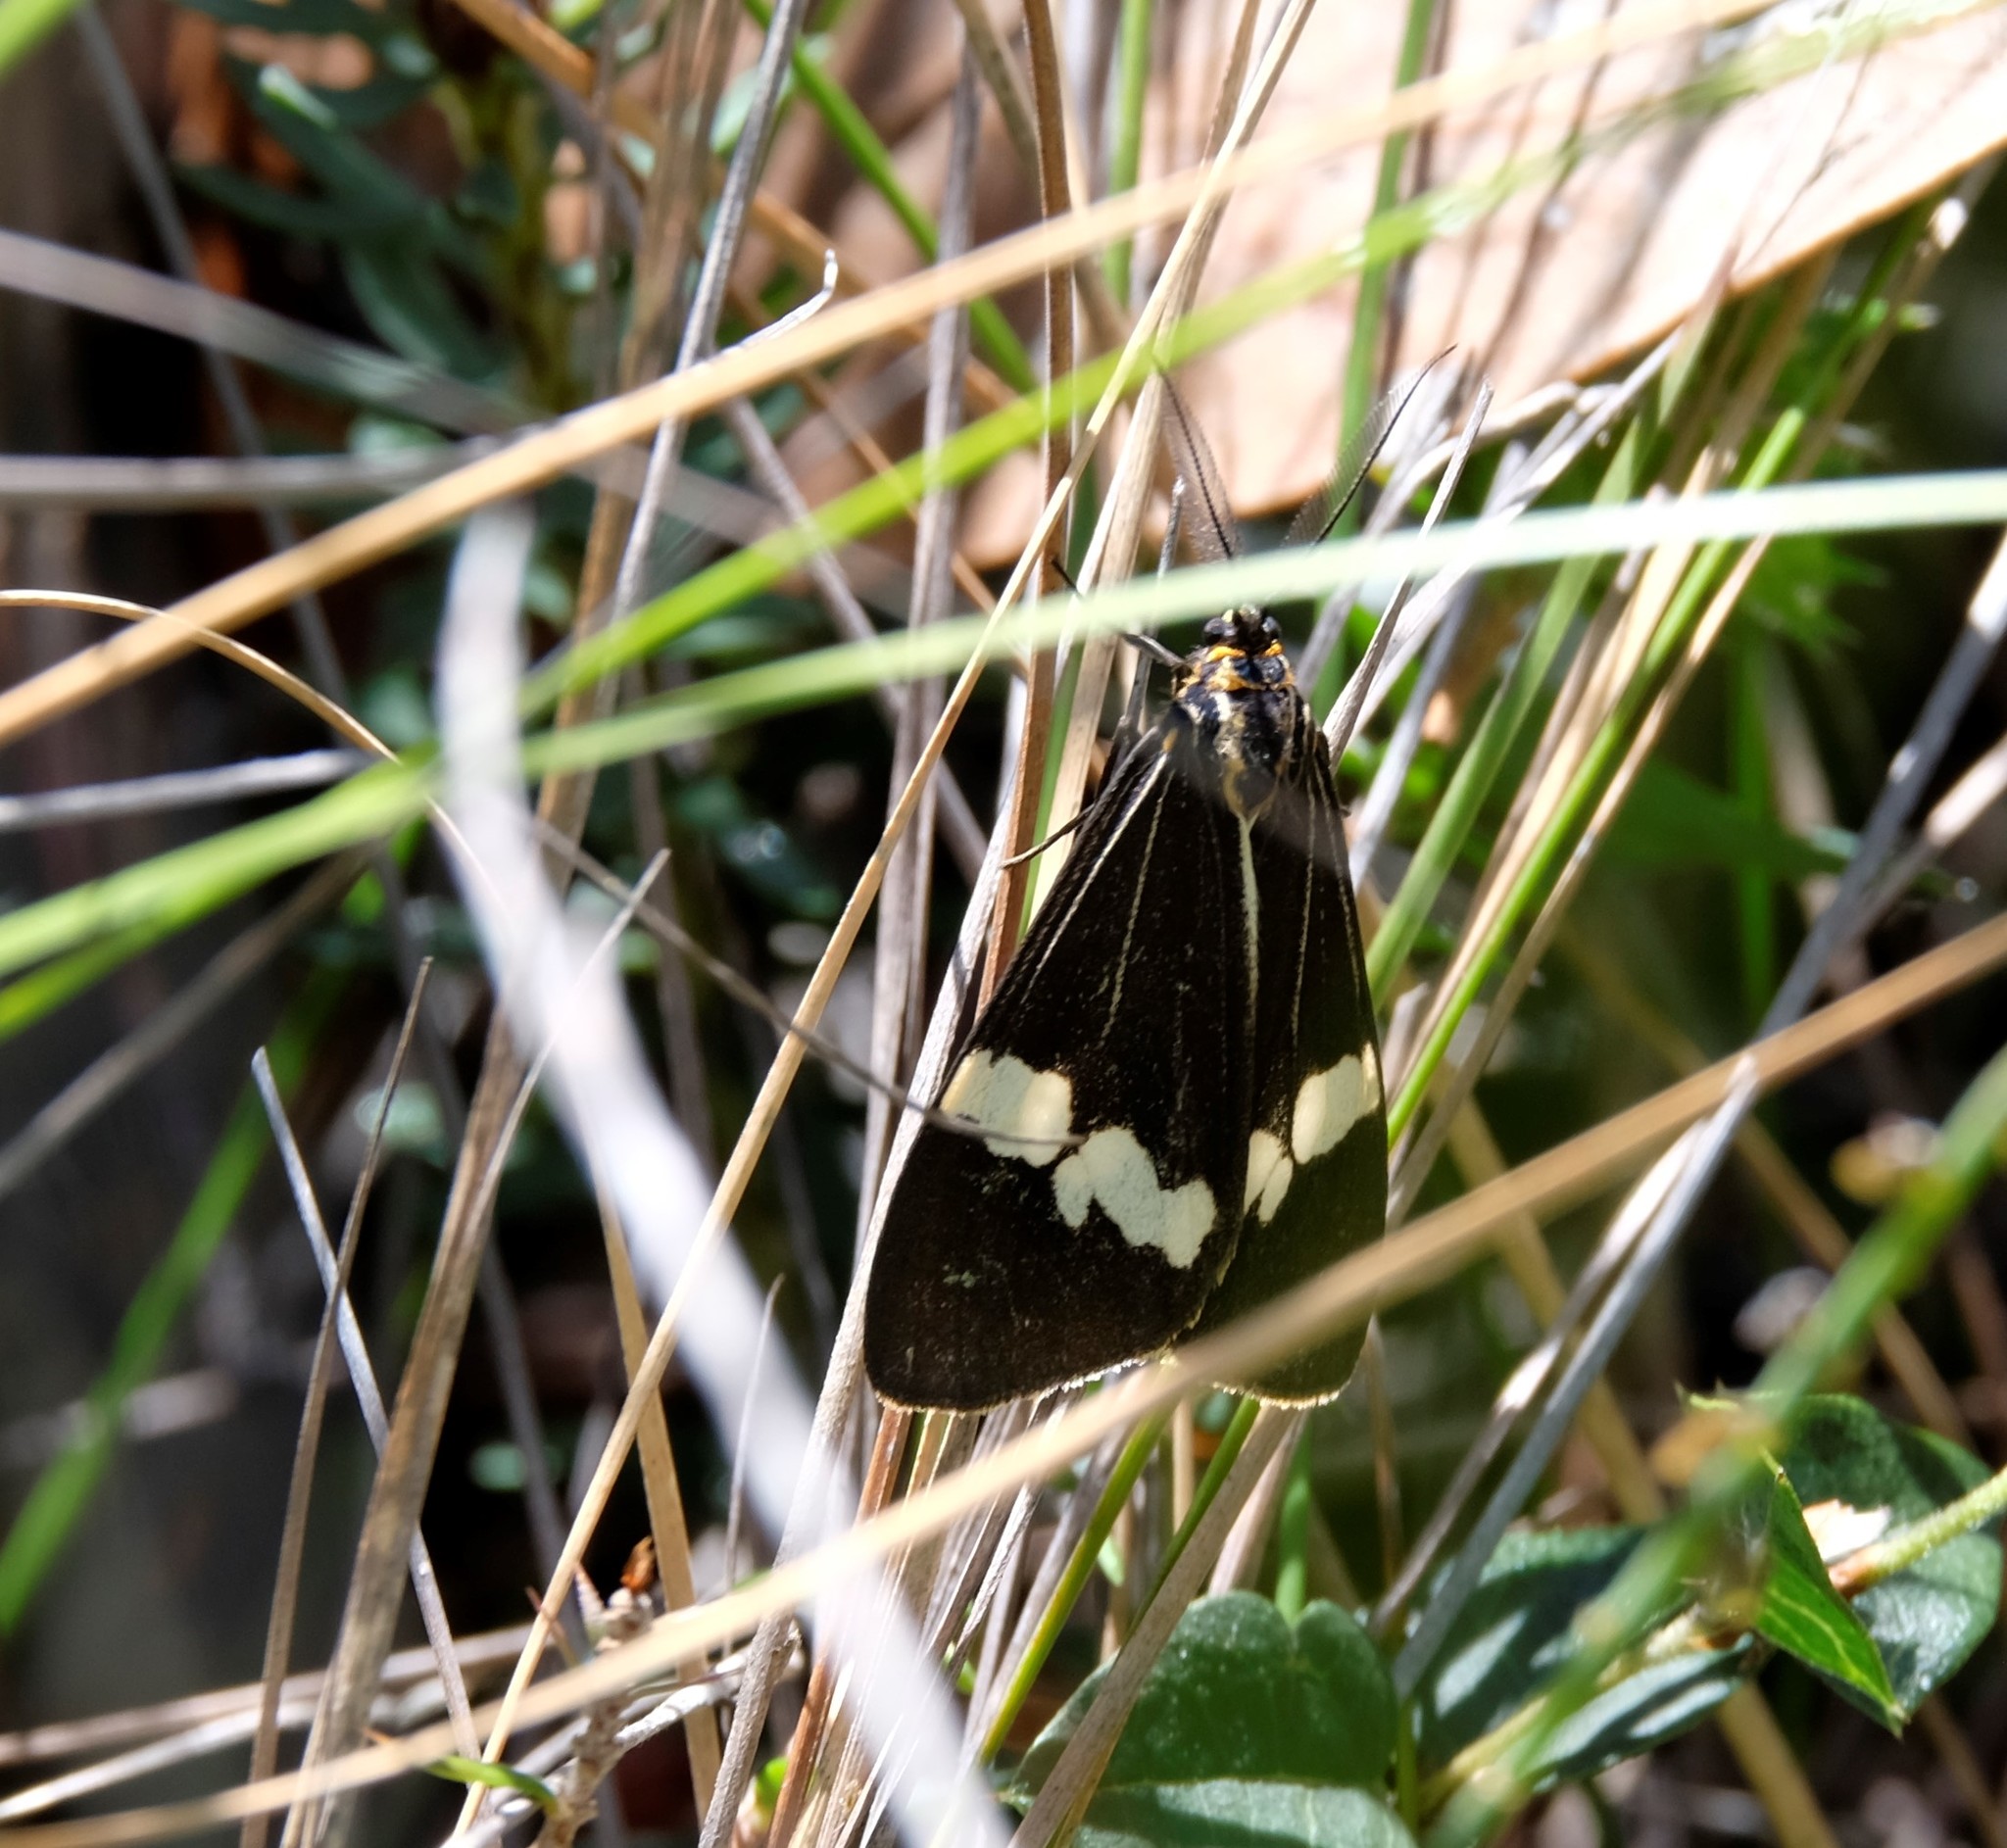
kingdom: Animalia
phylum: Arthropoda
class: Insecta
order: Lepidoptera
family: Erebidae
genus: Nyctemera
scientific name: Nyctemera amicus
